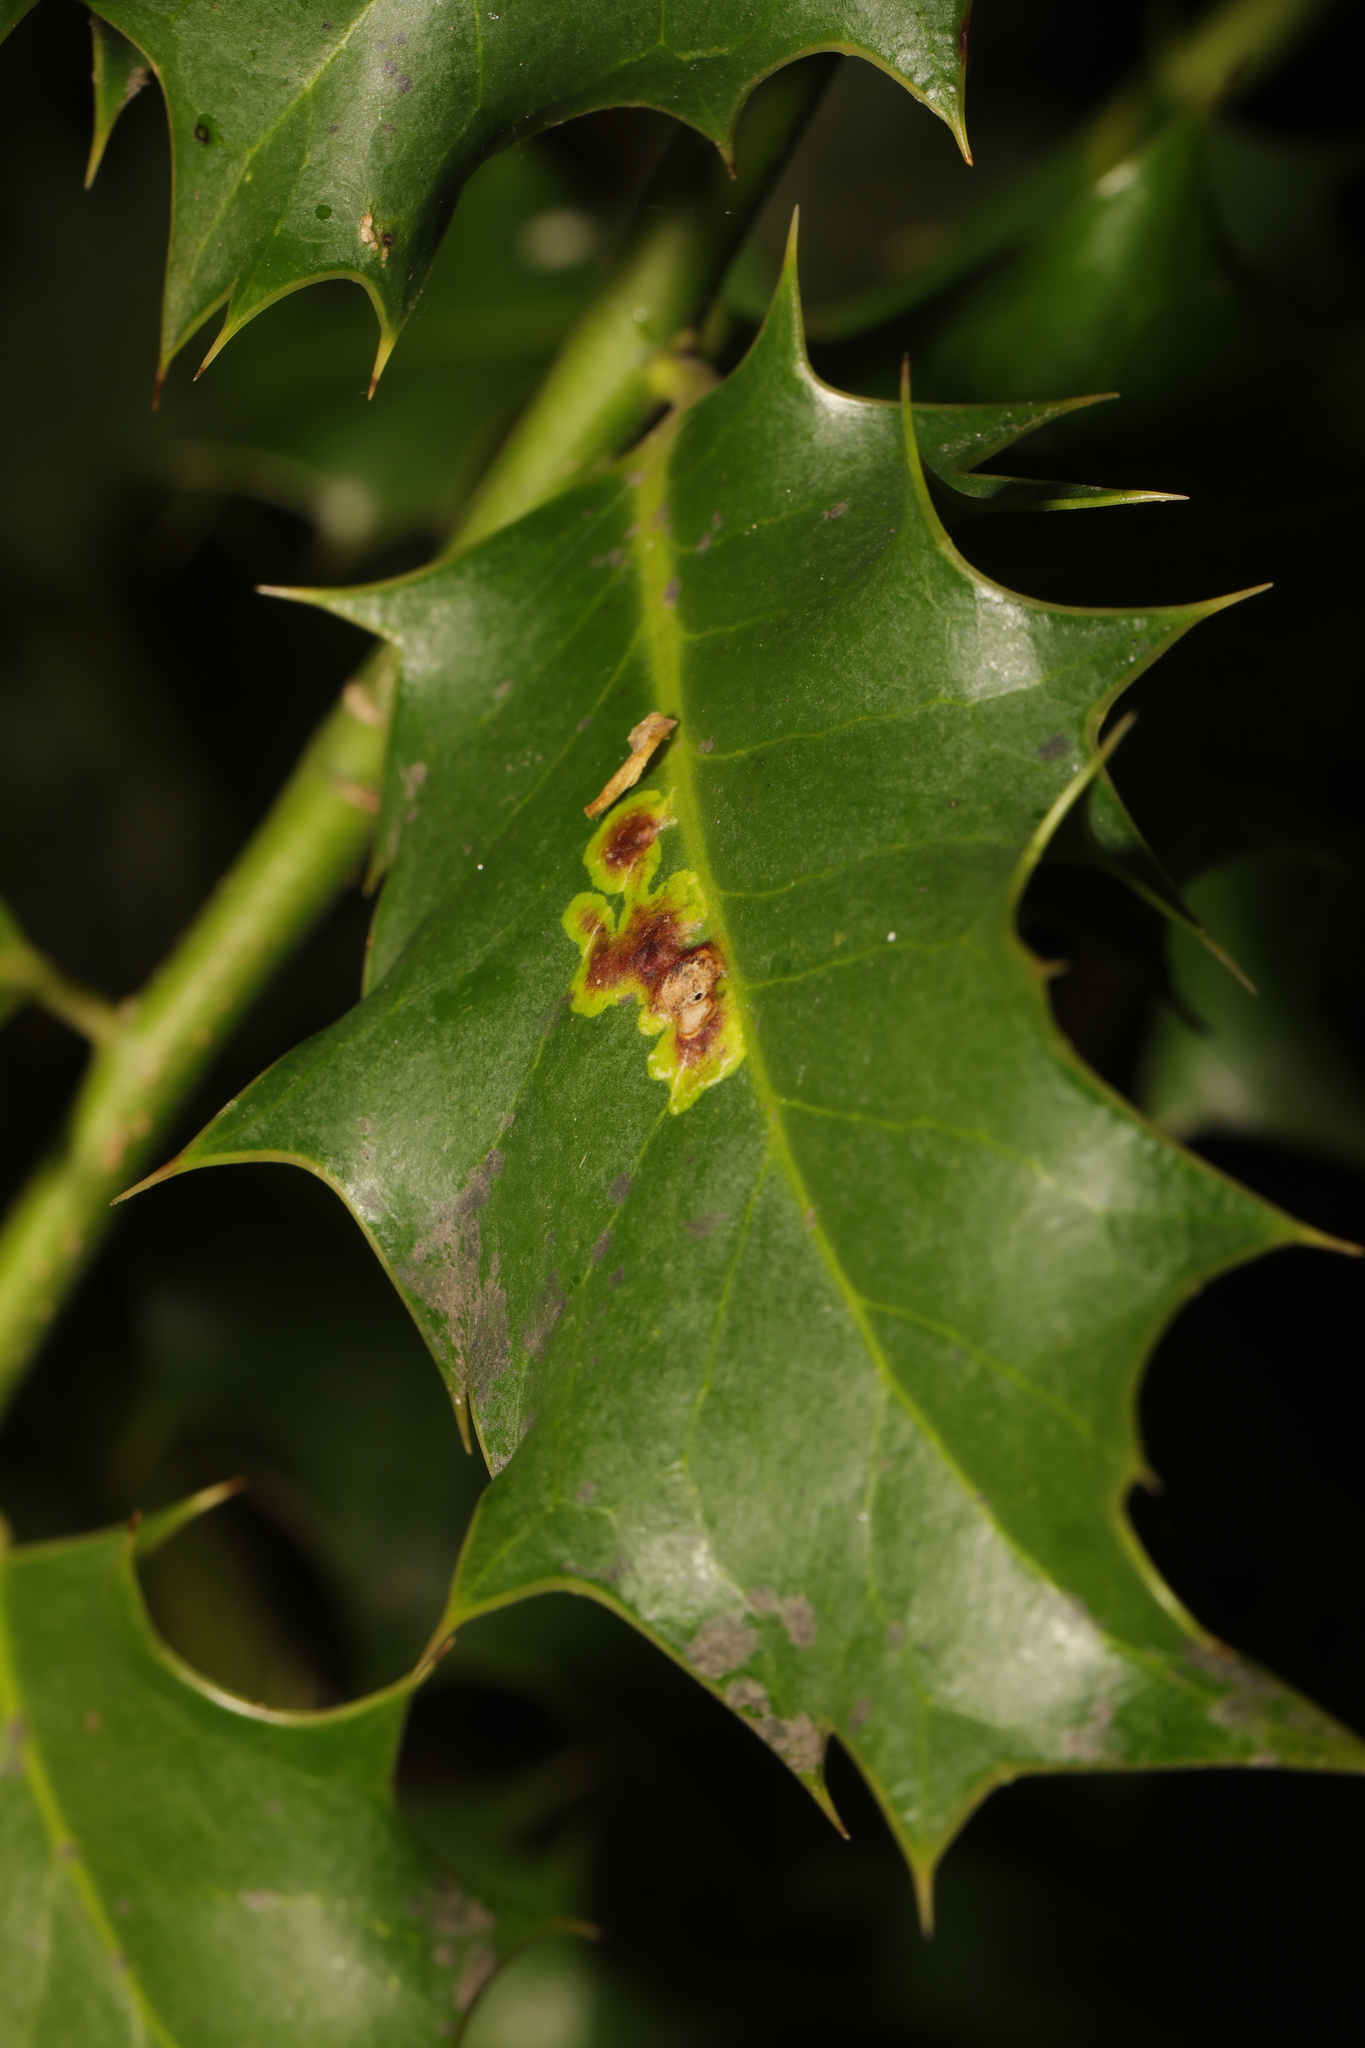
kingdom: Animalia
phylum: Arthropoda
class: Insecta
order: Diptera
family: Agromyzidae
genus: Phytomyza
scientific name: Phytomyza ilicis
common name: Holly leafminer
